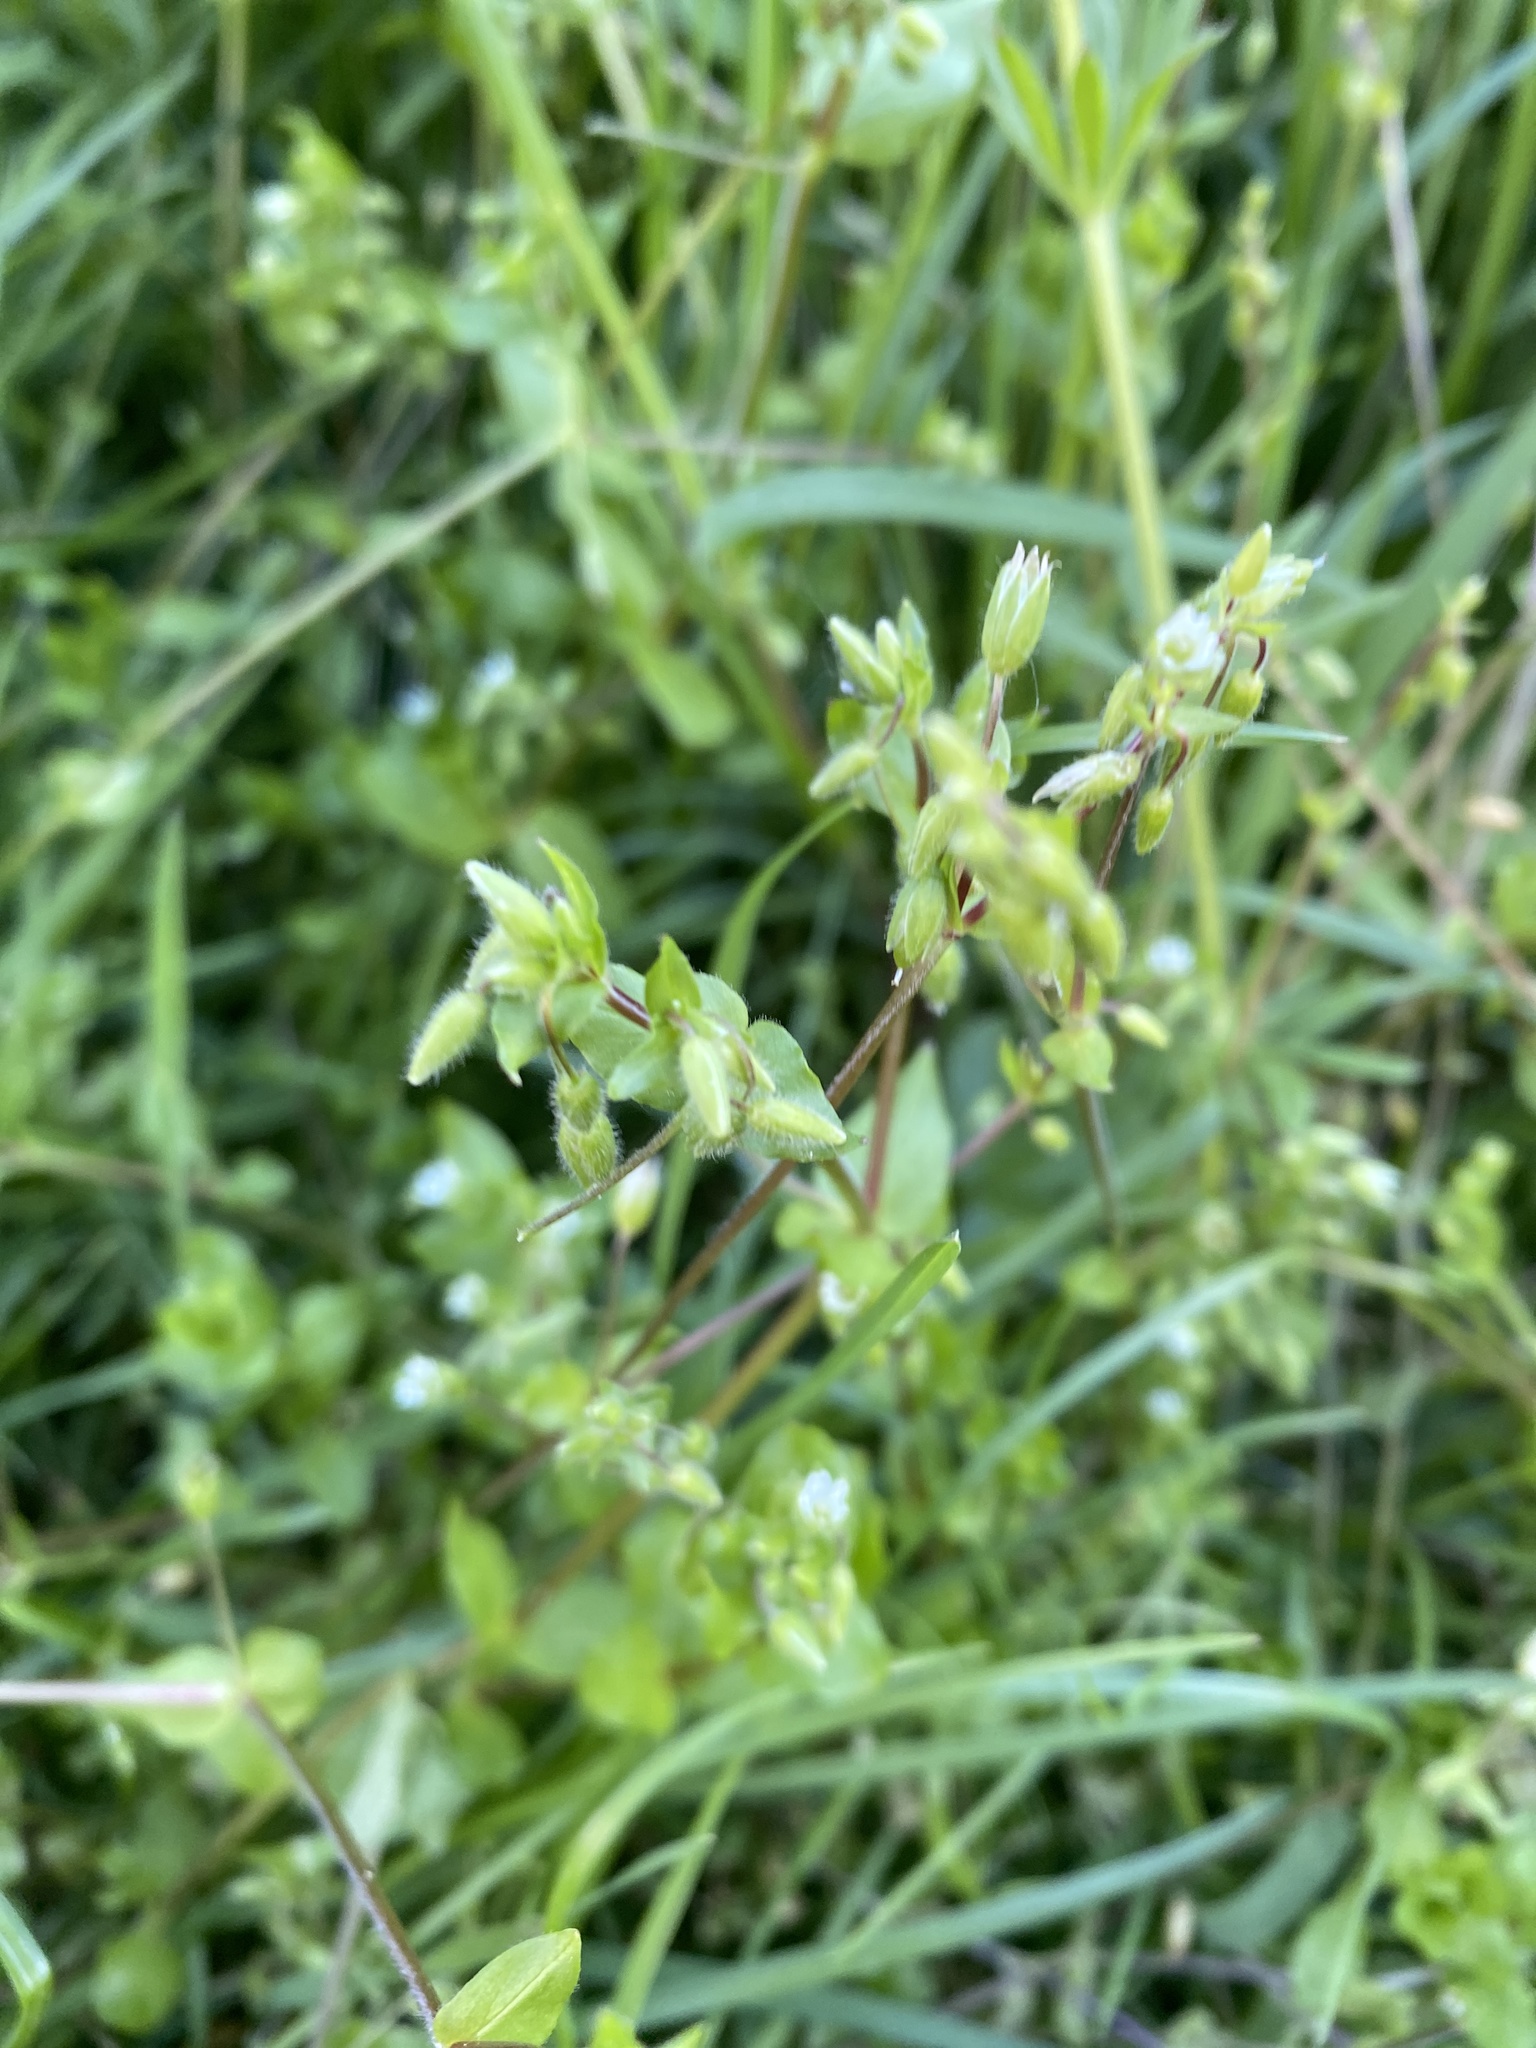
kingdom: Plantae
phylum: Tracheophyta
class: Magnoliopsida
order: Caryophyllales
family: Caryophyllaceae
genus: Stellaria
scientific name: Stellaria media
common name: Common chickweed
